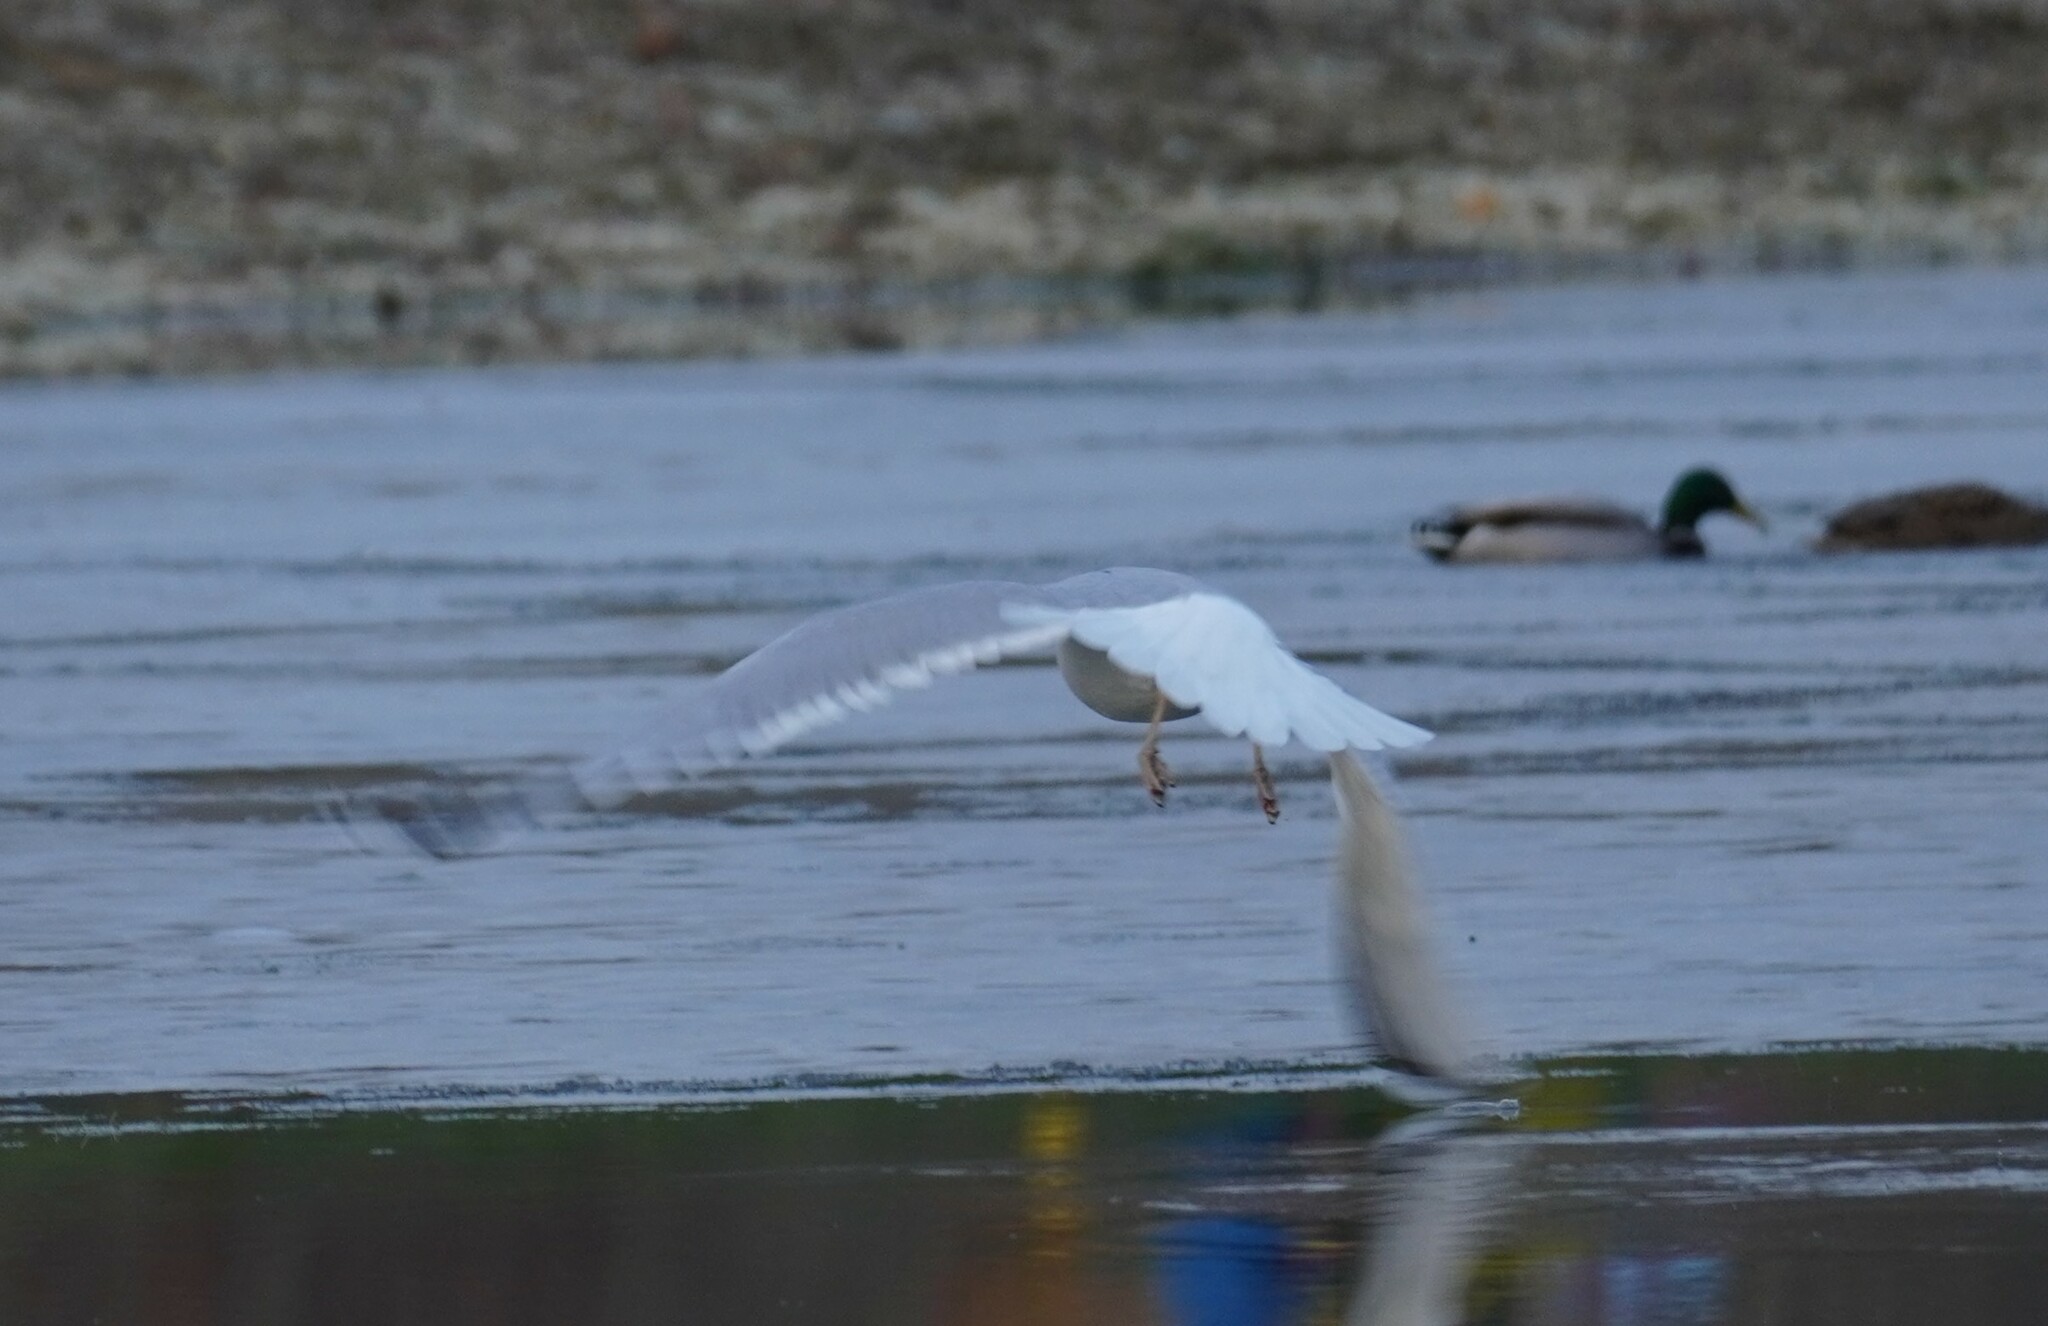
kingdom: Animalia
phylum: Chordata
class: Aves
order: Charadriiformes
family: Laridae
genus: Larus
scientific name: Larus argentatus
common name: Herring gull
